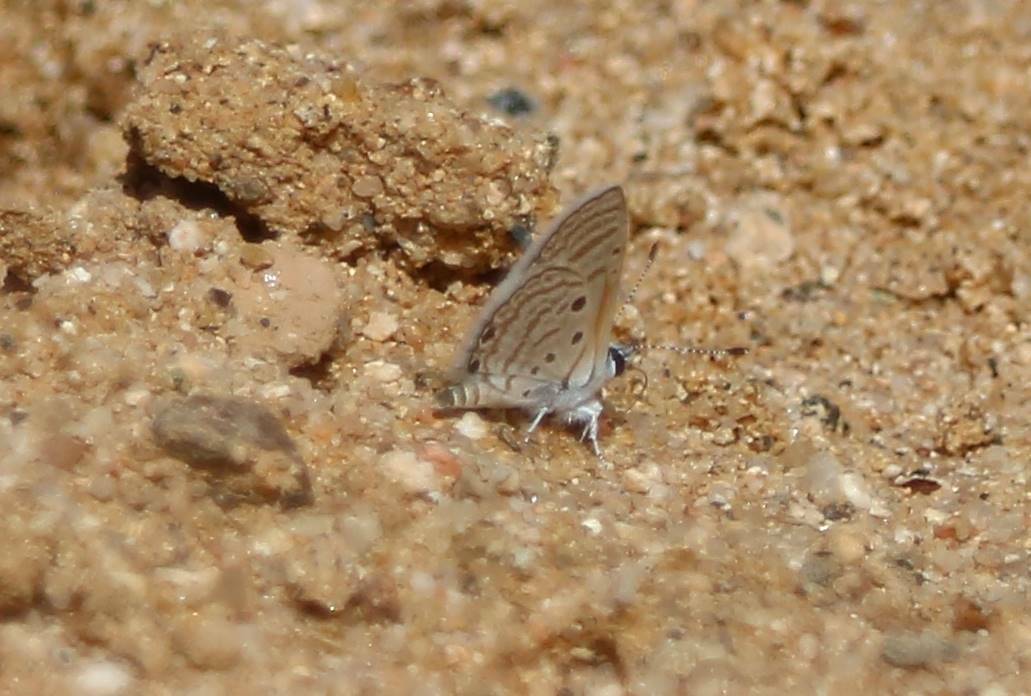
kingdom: Animalia
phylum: Arthropoda
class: Insecta
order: Lepidoptera
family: Lycaenidae
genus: Azanus
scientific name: Azanus ubaldus
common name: Desert babul blue
